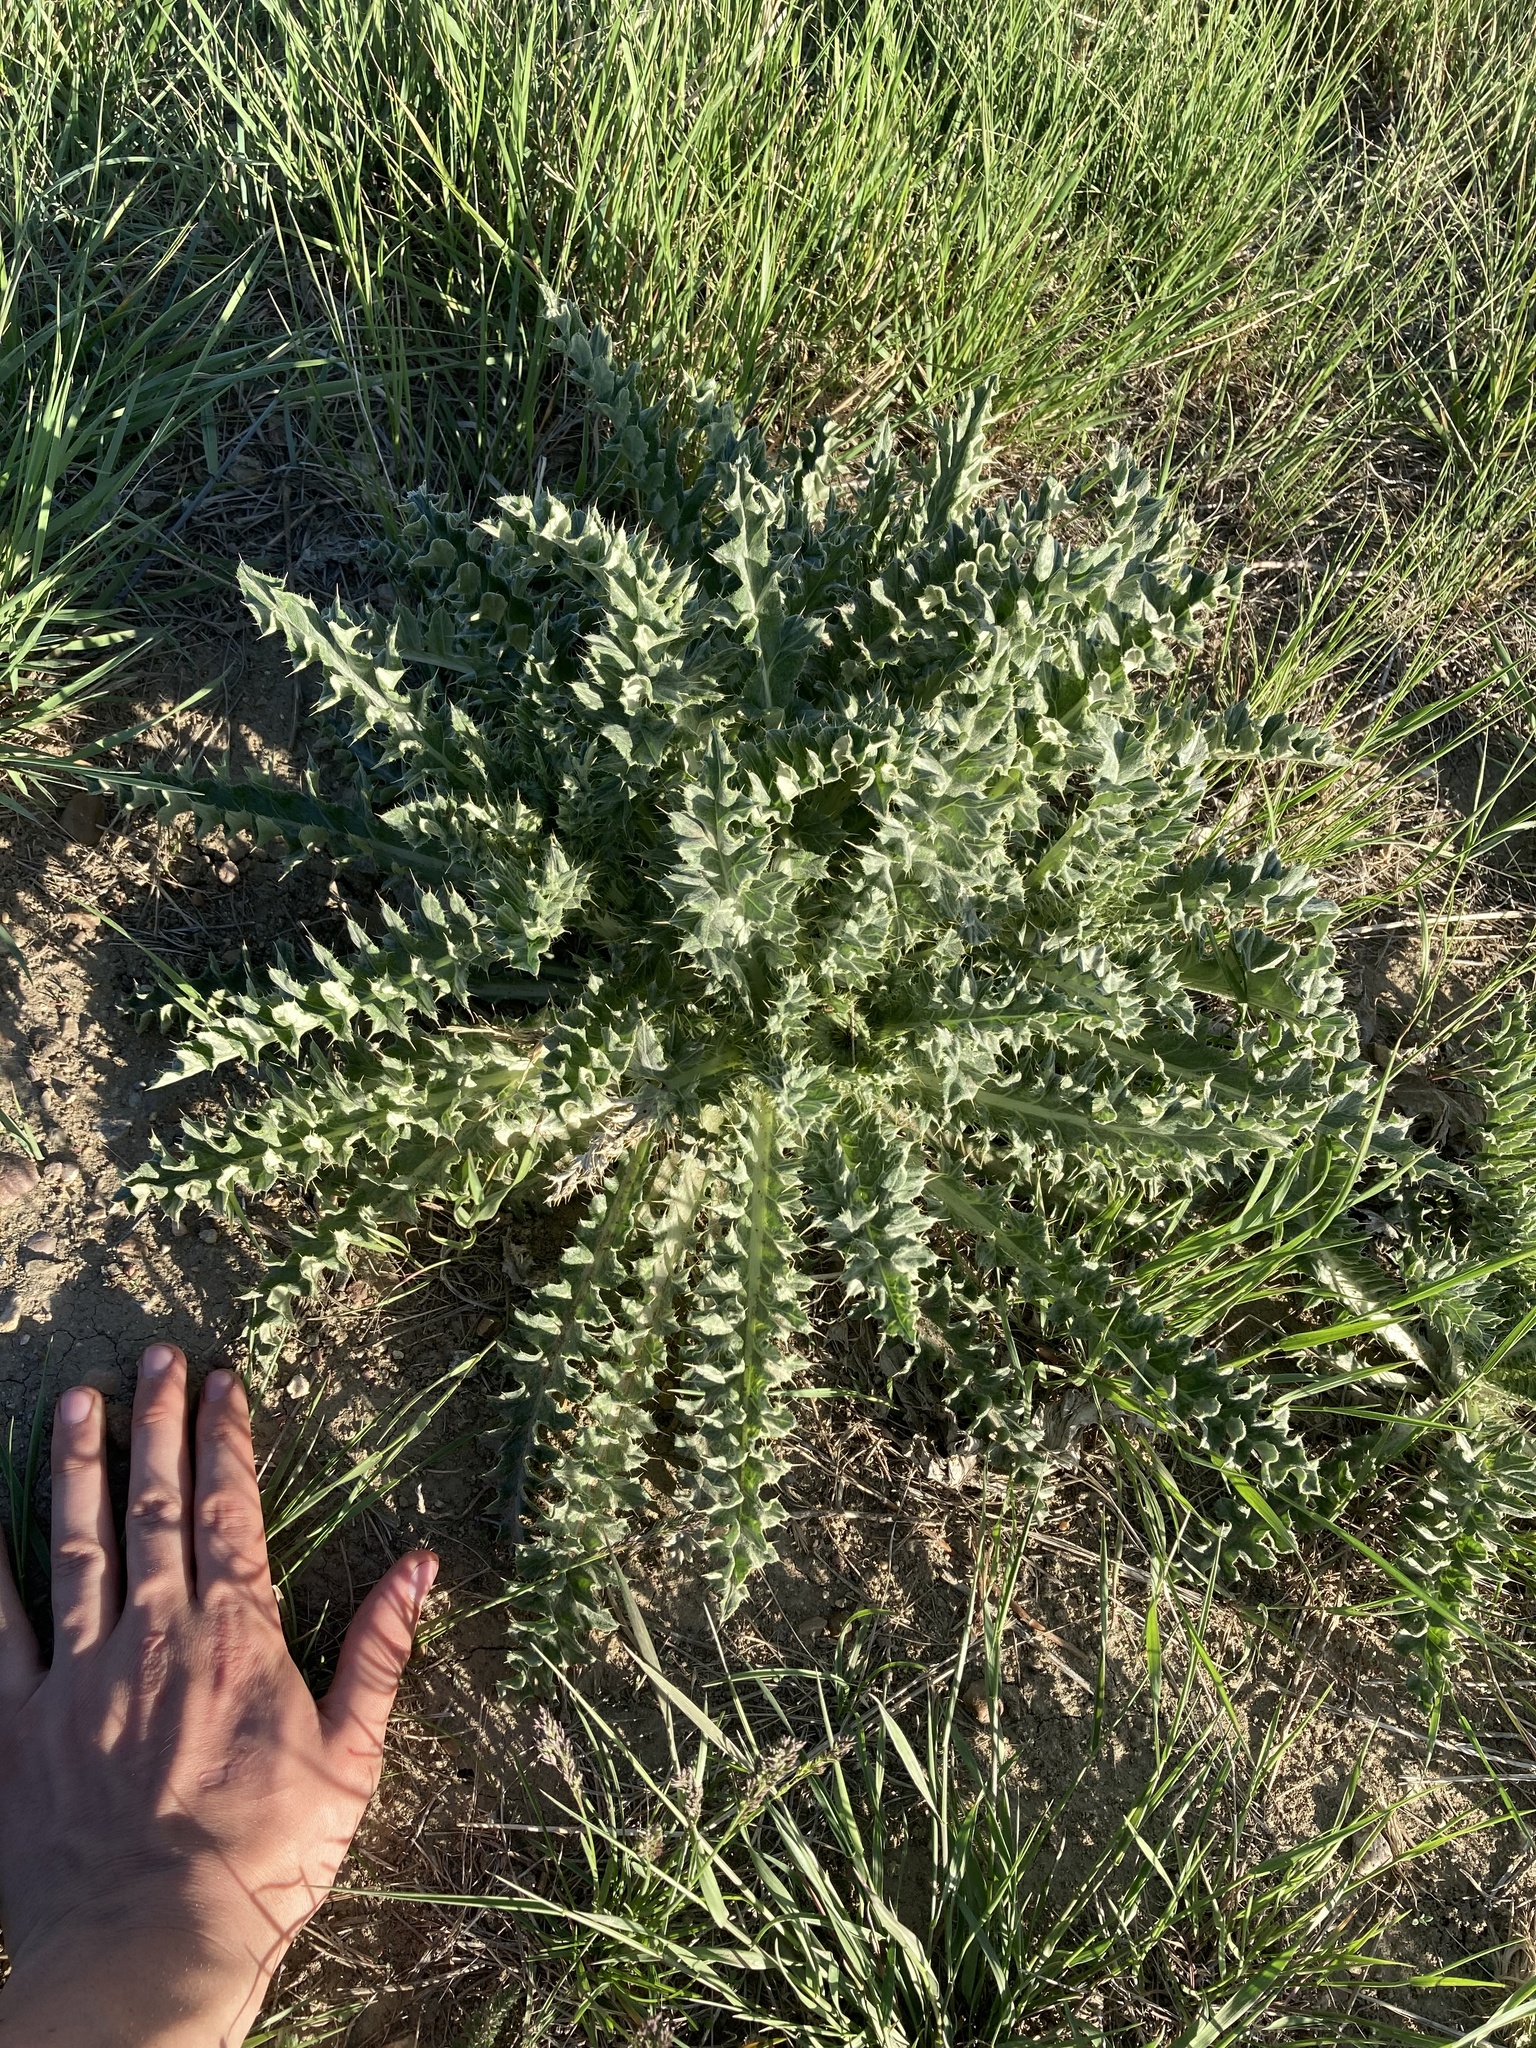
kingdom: Plantae
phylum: Tracheophyta
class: Magnoliopsida
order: Asterales
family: Asteraceae
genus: Cirsium
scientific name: Cirsium undulatum
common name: Pasture thistle
